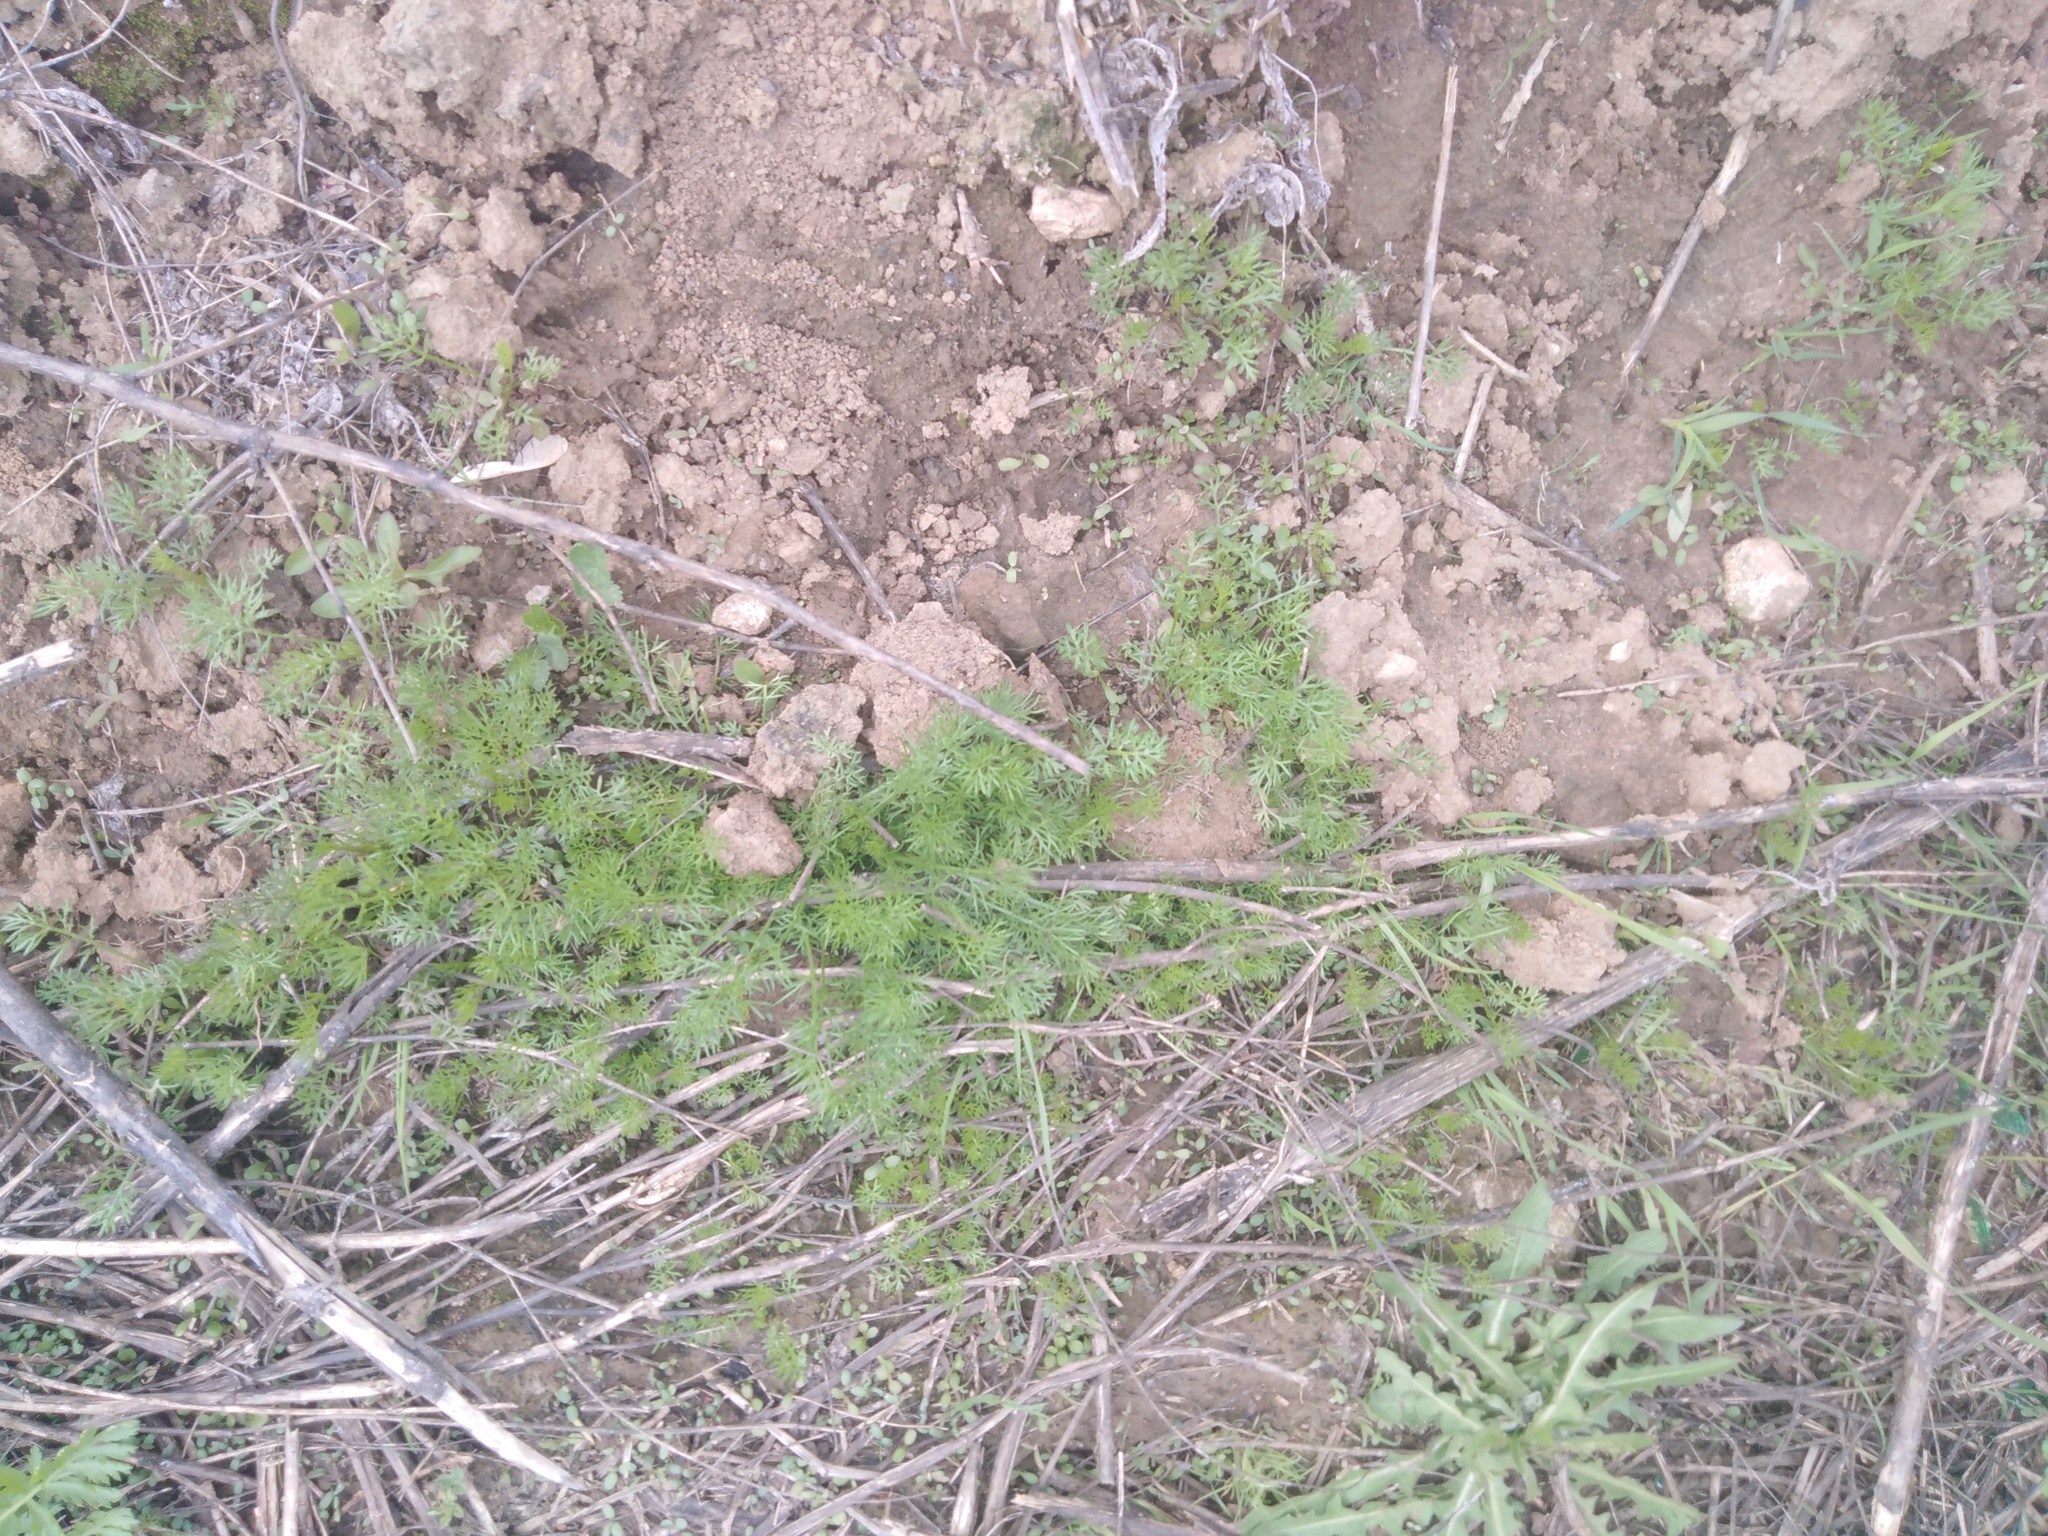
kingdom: Plantae
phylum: Tracheophyta
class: Magnoliopsida
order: Asterales
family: Asteraceae
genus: Tripleurospermum
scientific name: Tripleurospermum inodorum
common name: Scentless mayweed
